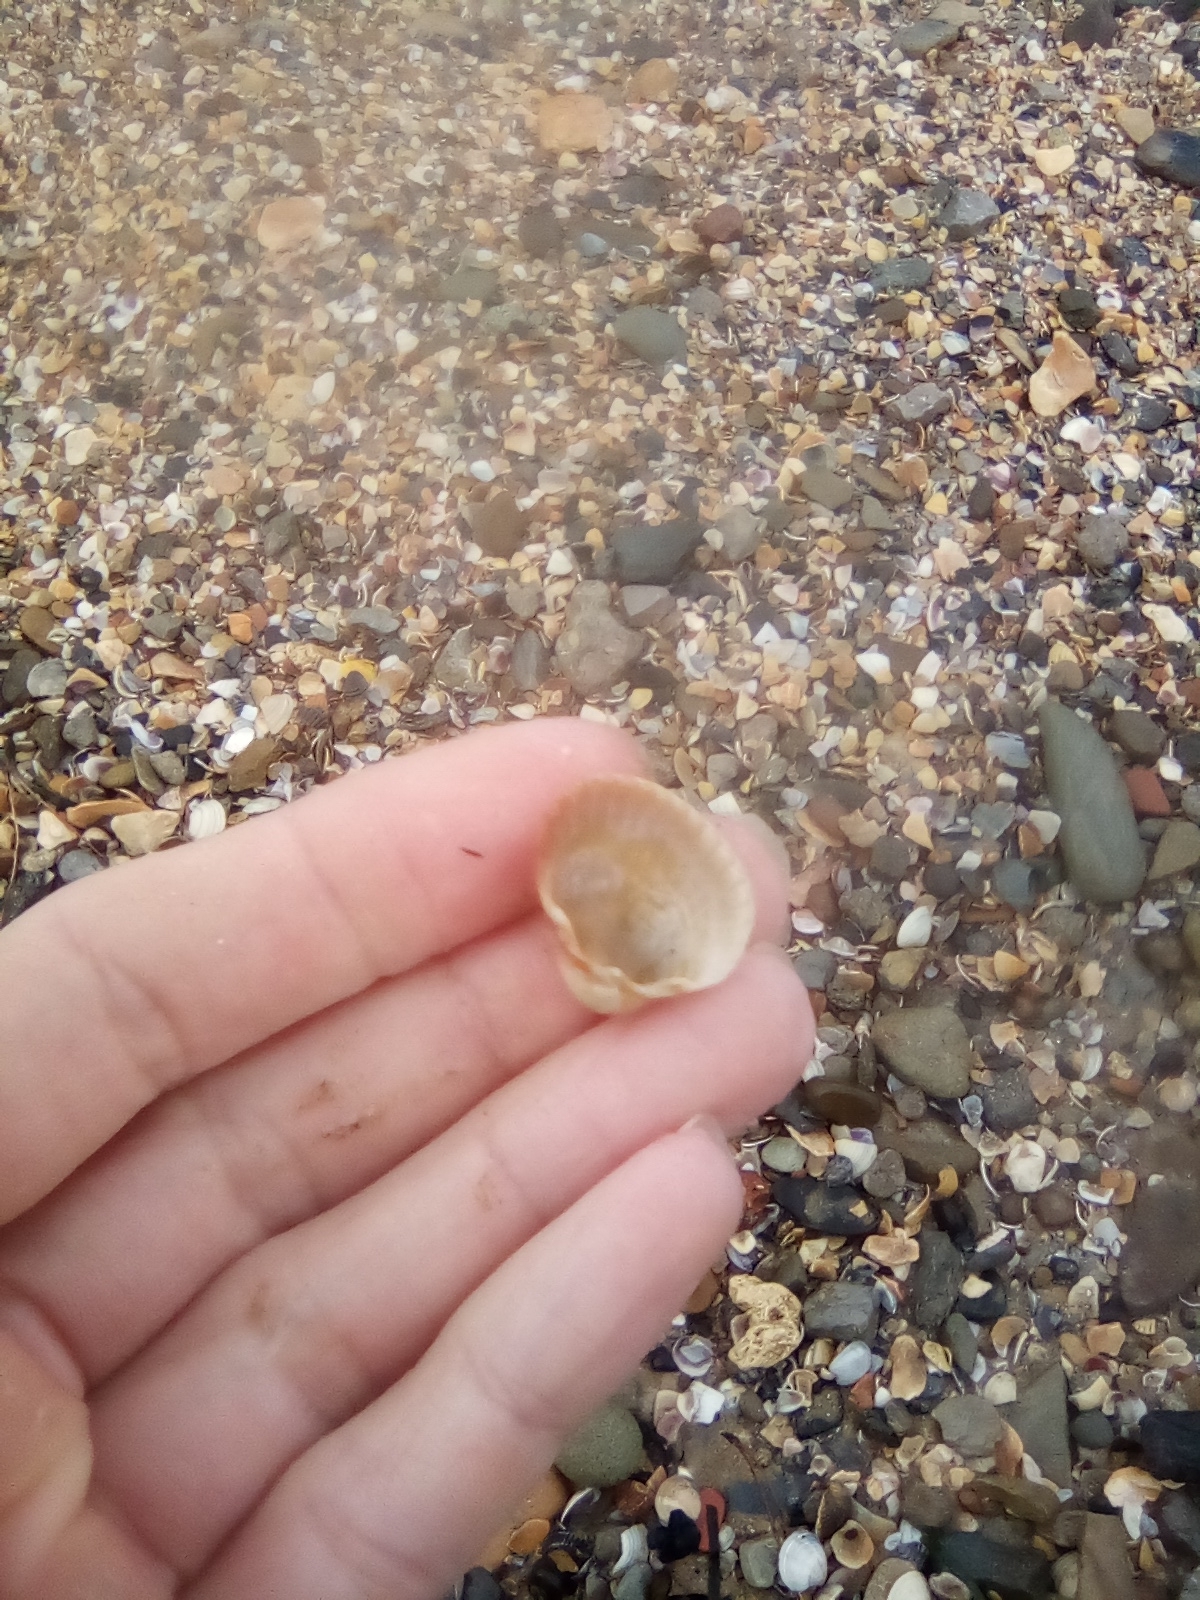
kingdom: Animalia
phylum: Mollusca
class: Bivalvia
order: Cardiida
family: Cardiidae
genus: Cerastoderma
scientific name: Cerastoderma glaucum
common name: Lagoon cockle
